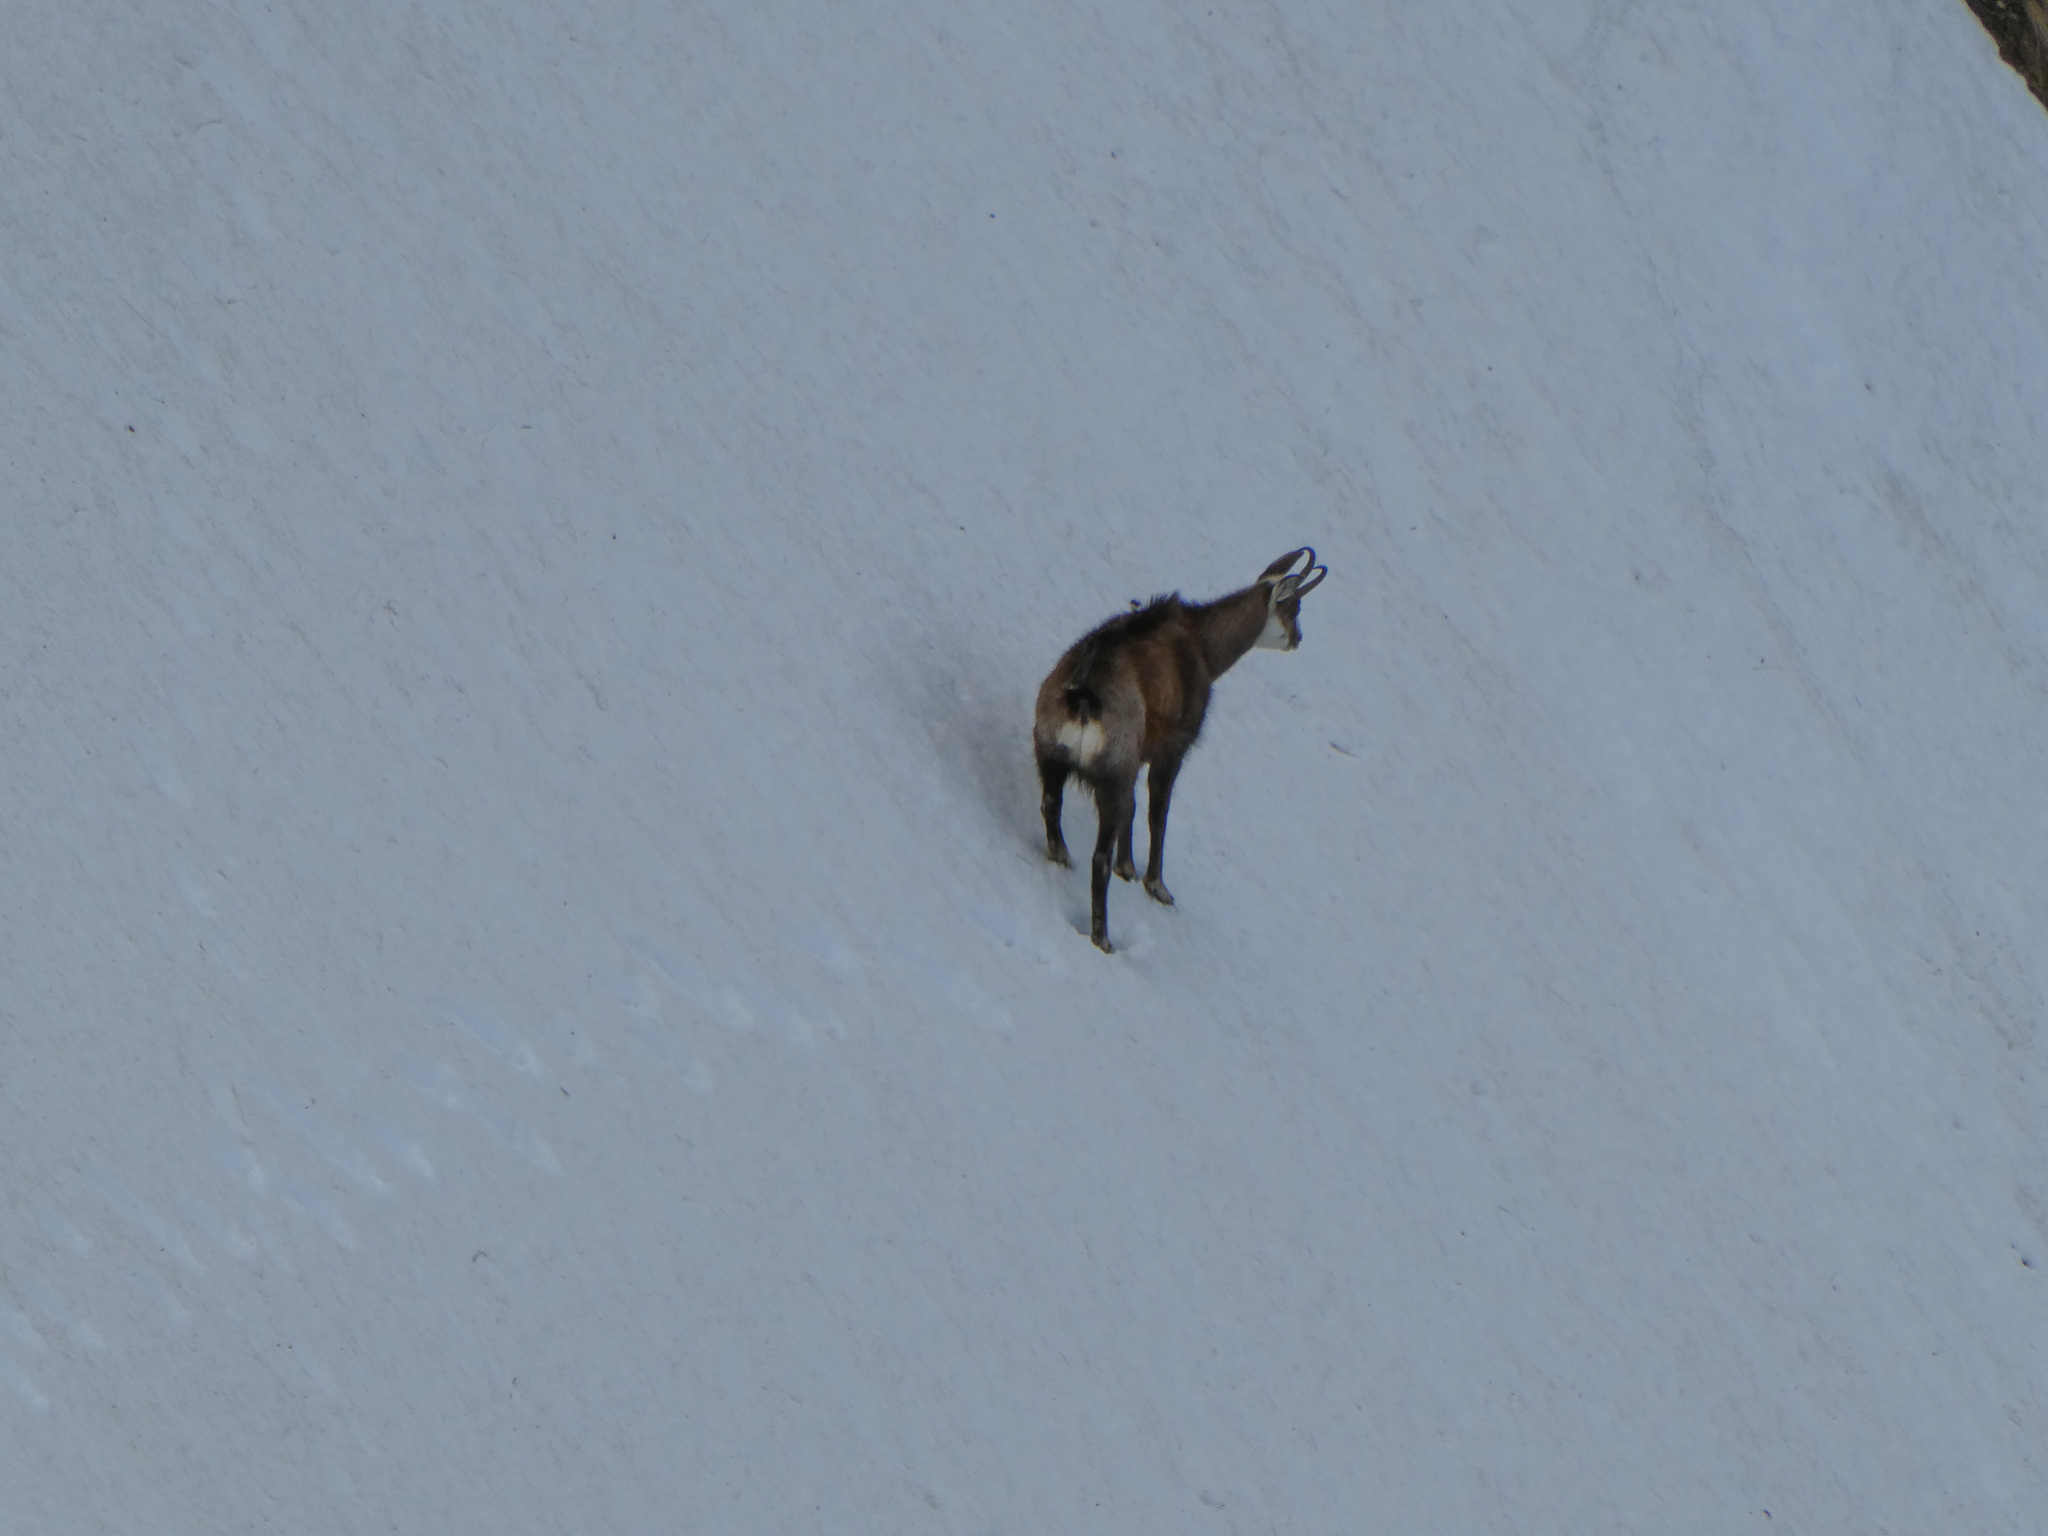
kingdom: Animalia
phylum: Chordata
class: Mammalia
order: Artiodactyla
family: Bovidae
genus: Rupicapra
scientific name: Rupicapra rupicapra
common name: Chamois
